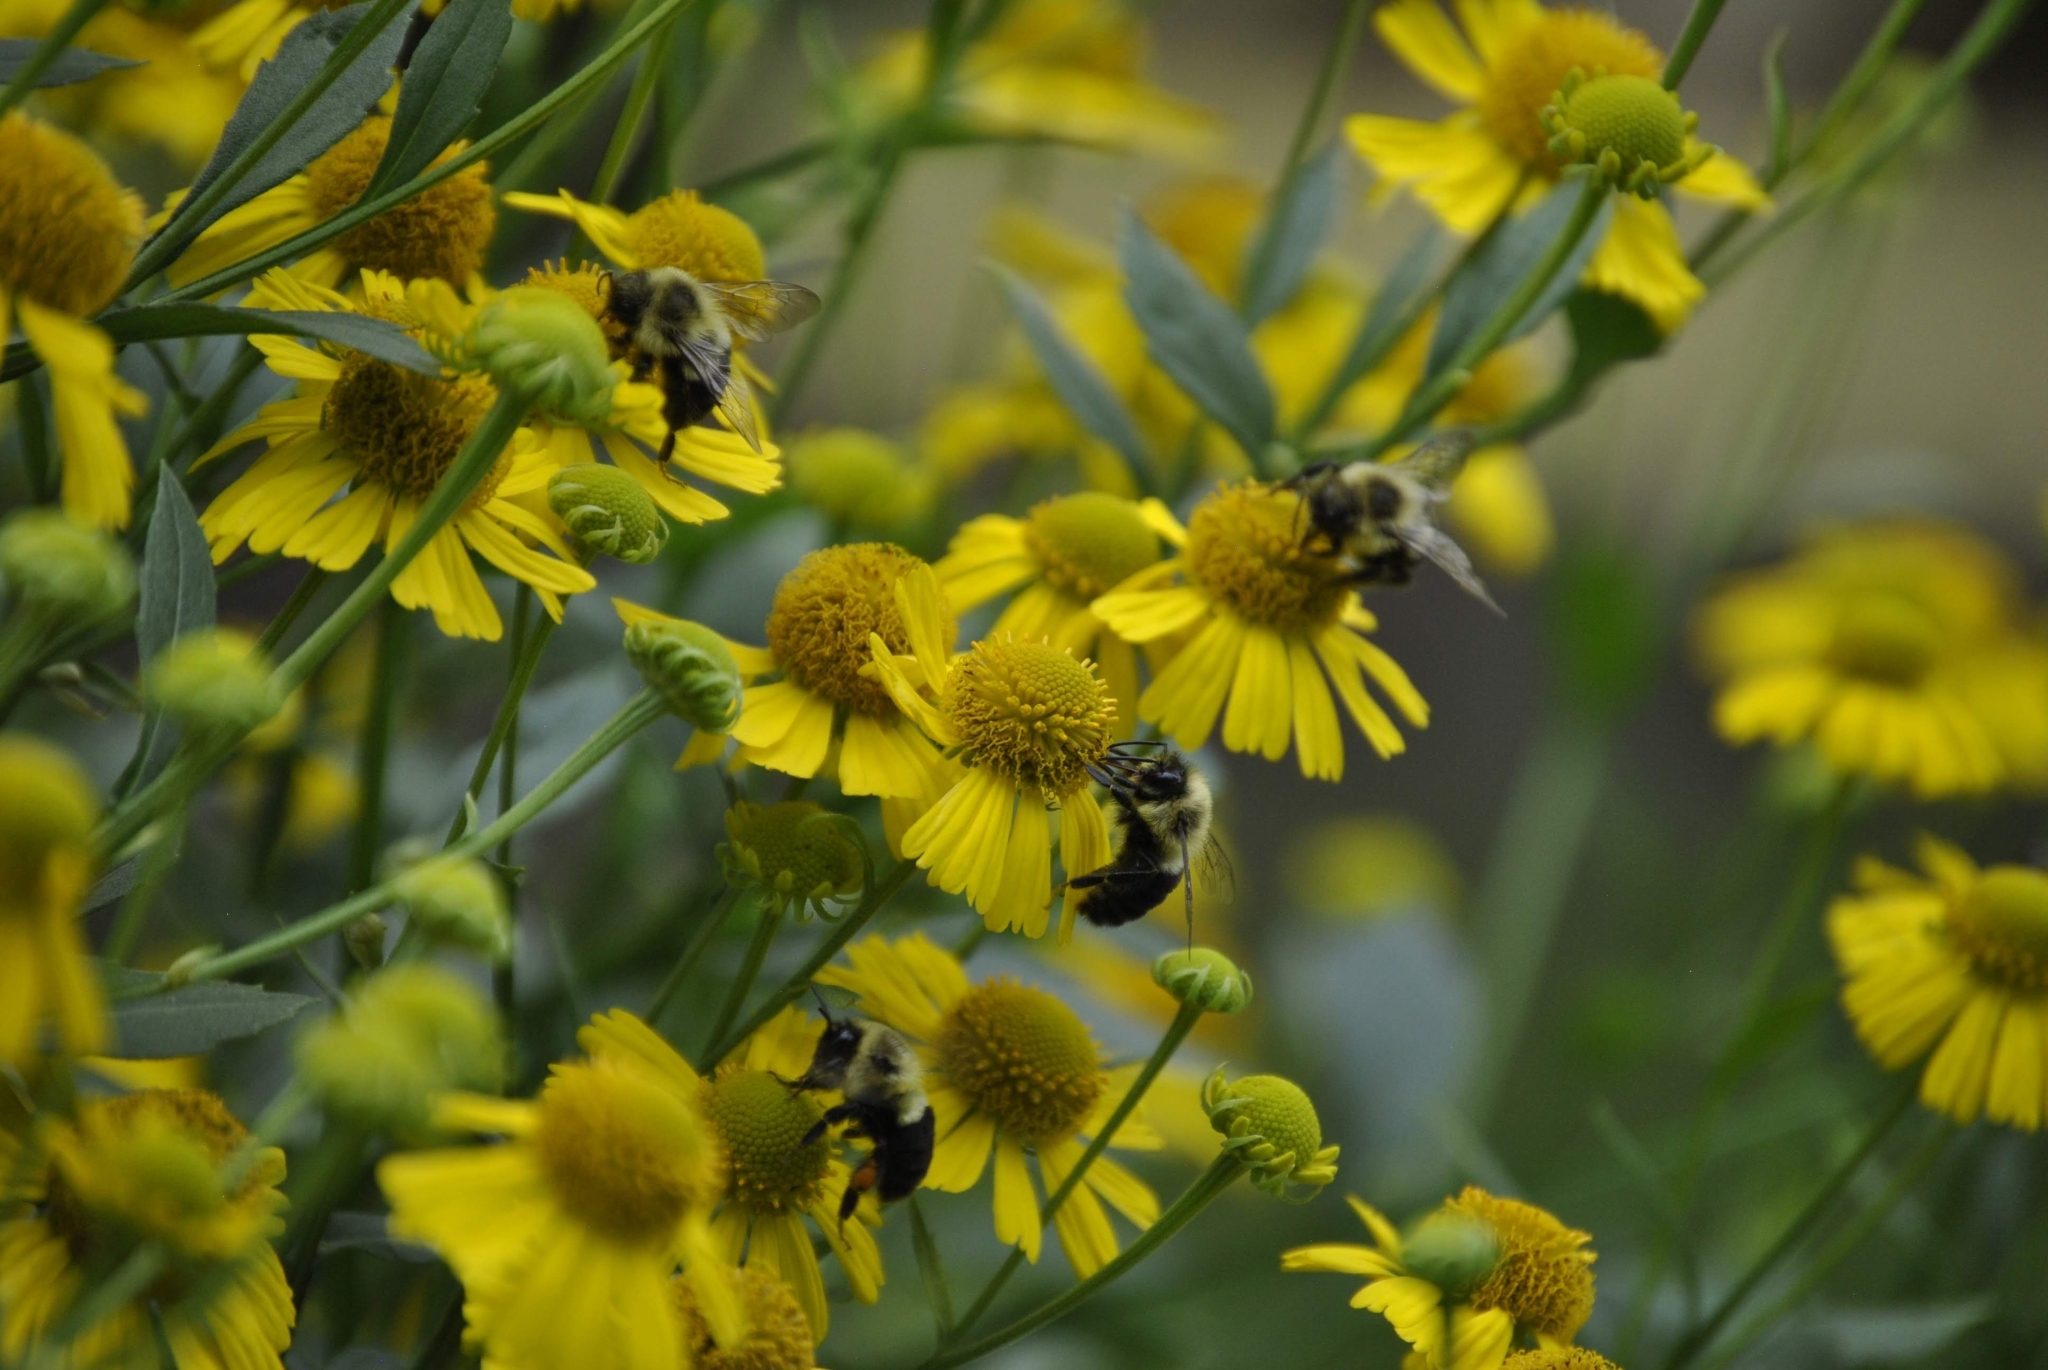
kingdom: Animalia
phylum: Arthropoda
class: Insecta
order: Hymenoptera
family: Apidae
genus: Bombus
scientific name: Bombus impatiens
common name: Common eastern bumble bee
